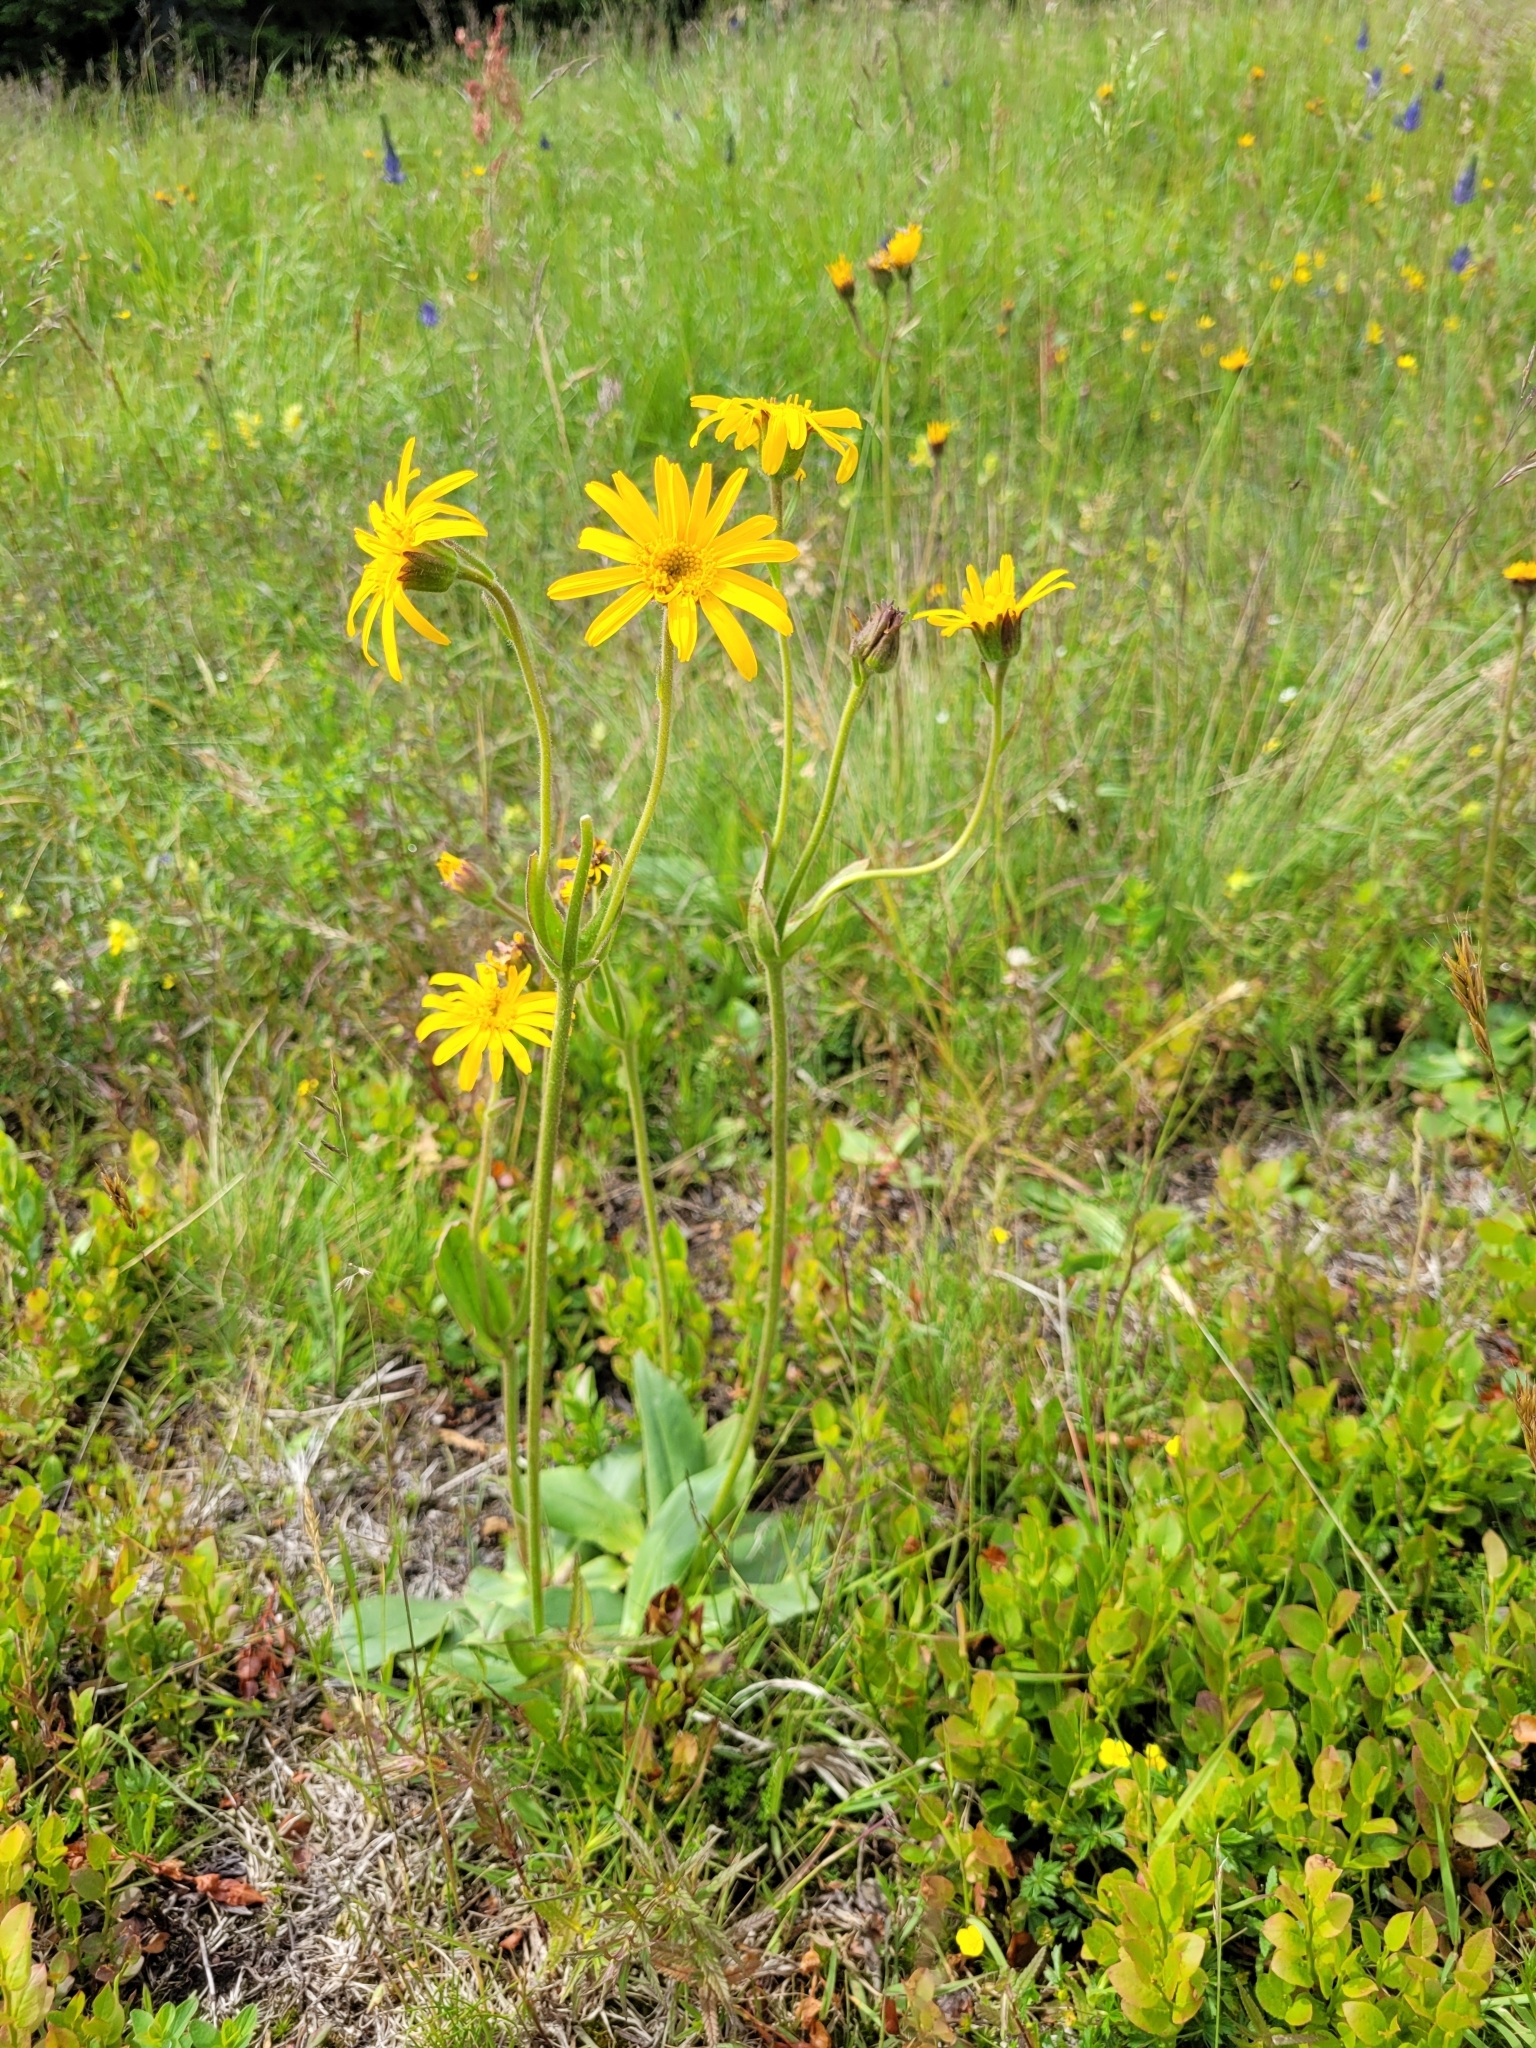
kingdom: Plantae
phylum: Tracheophyta
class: Magnoliopsida
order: Asterales
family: Asteraceae
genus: Arnica
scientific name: Arnica montana
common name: Leopard's bane
